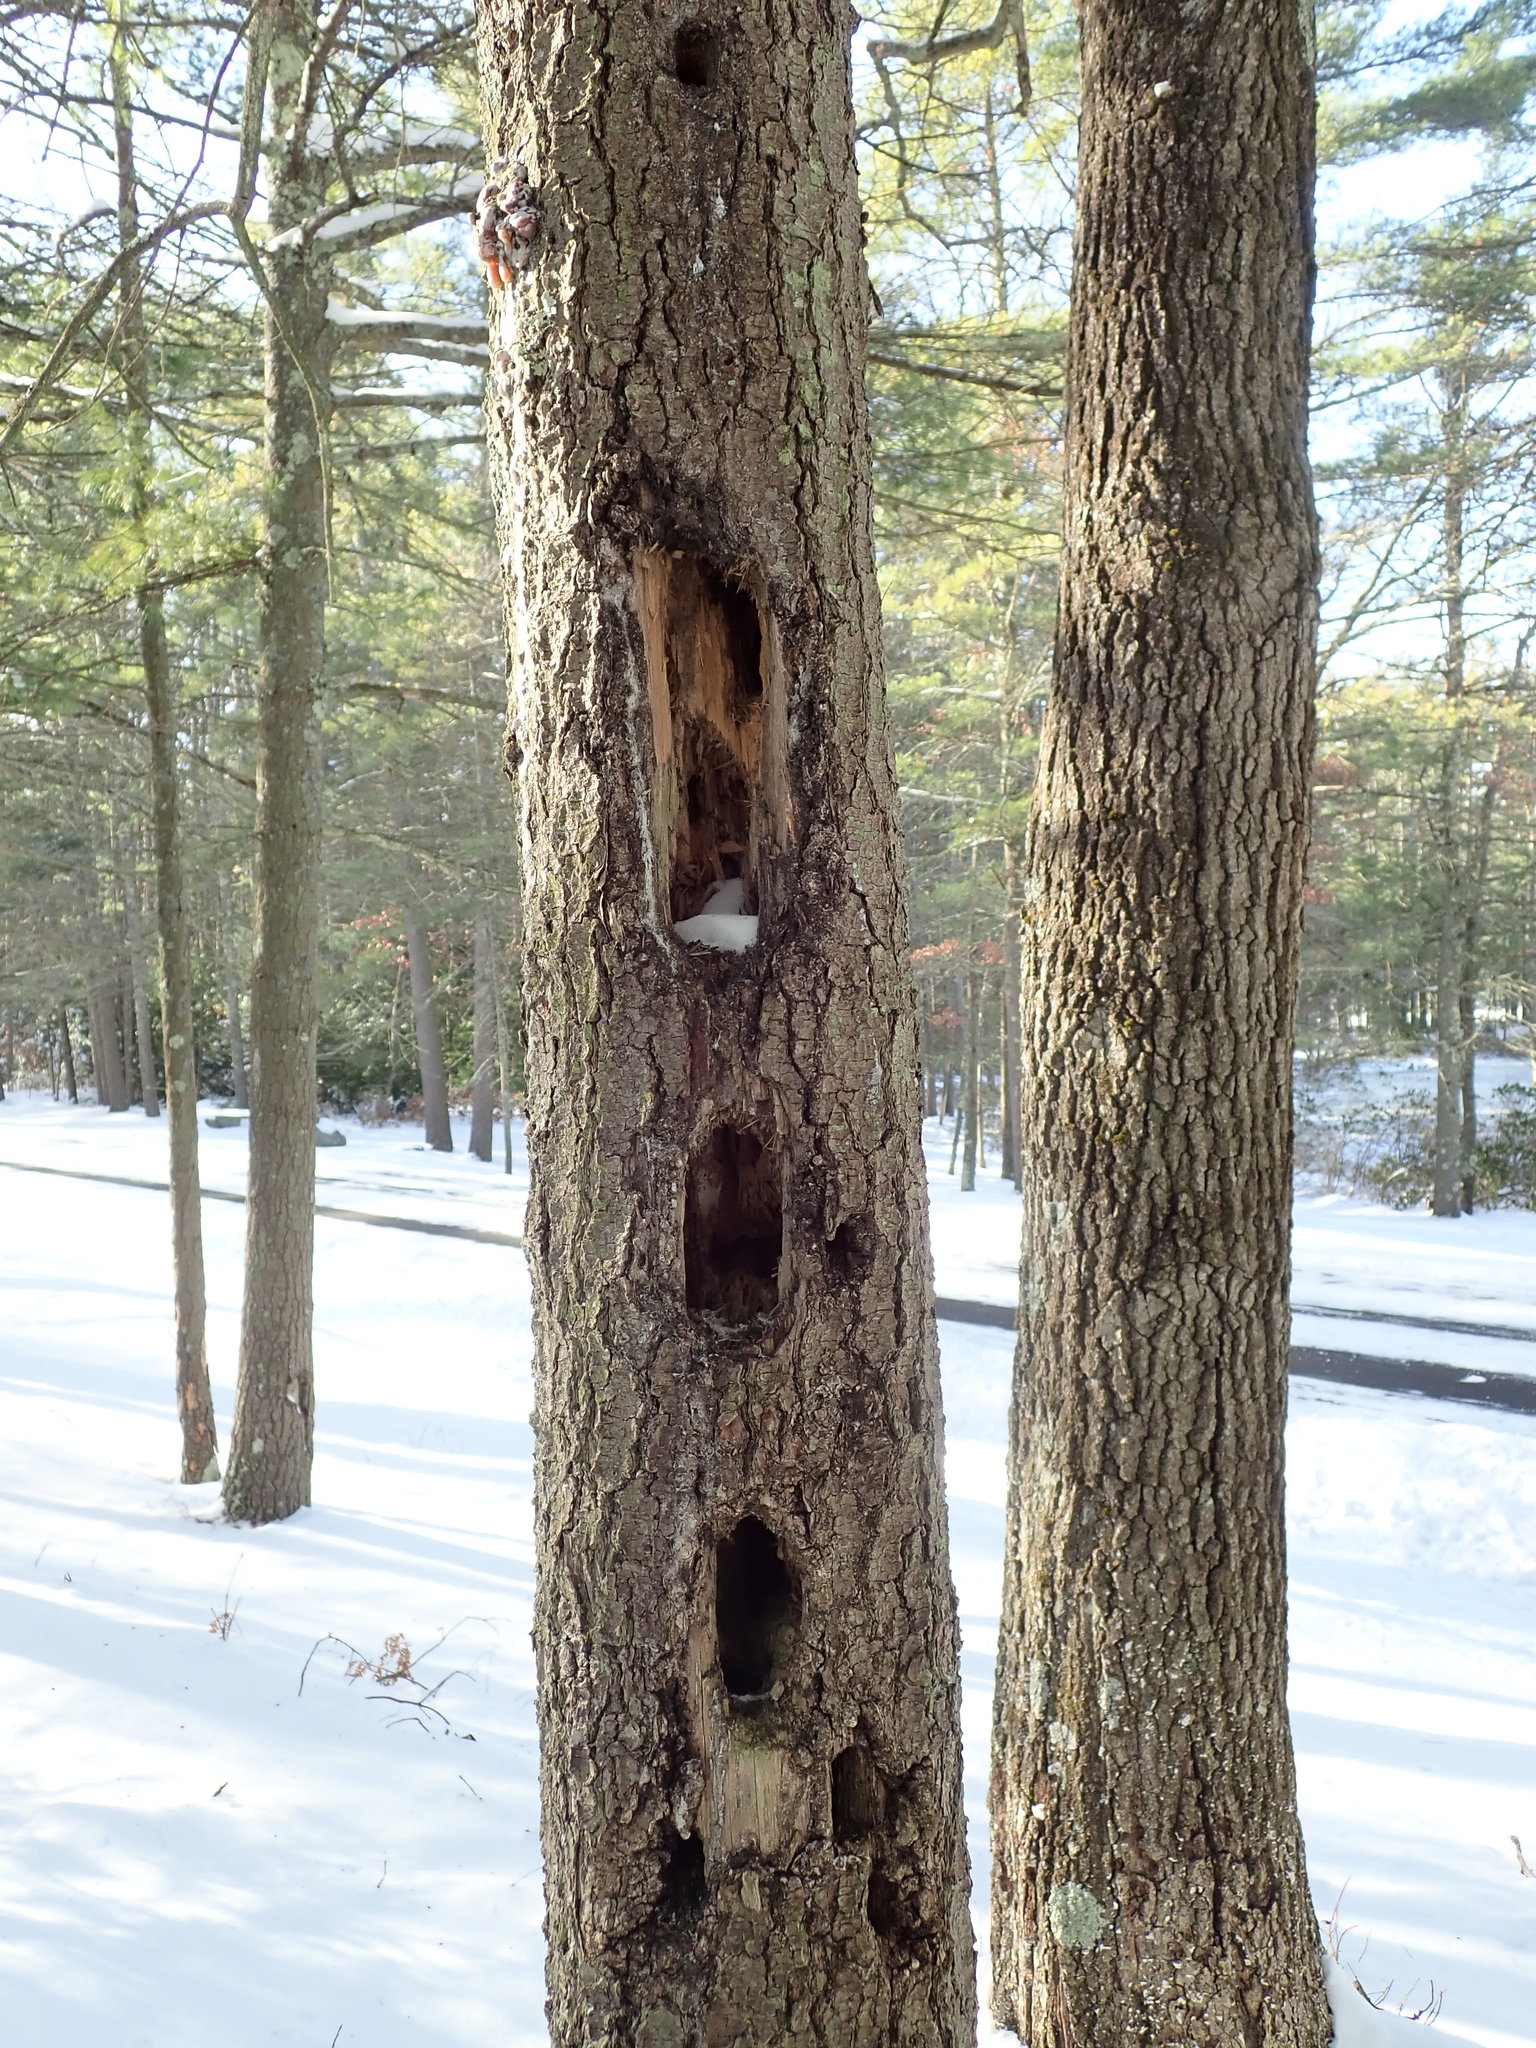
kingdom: Animalia
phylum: Chordata
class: Aves
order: Piciformes
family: Picidae
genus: Dryocopus
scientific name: Dryocopus pileatus
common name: Pileated woodpecker
